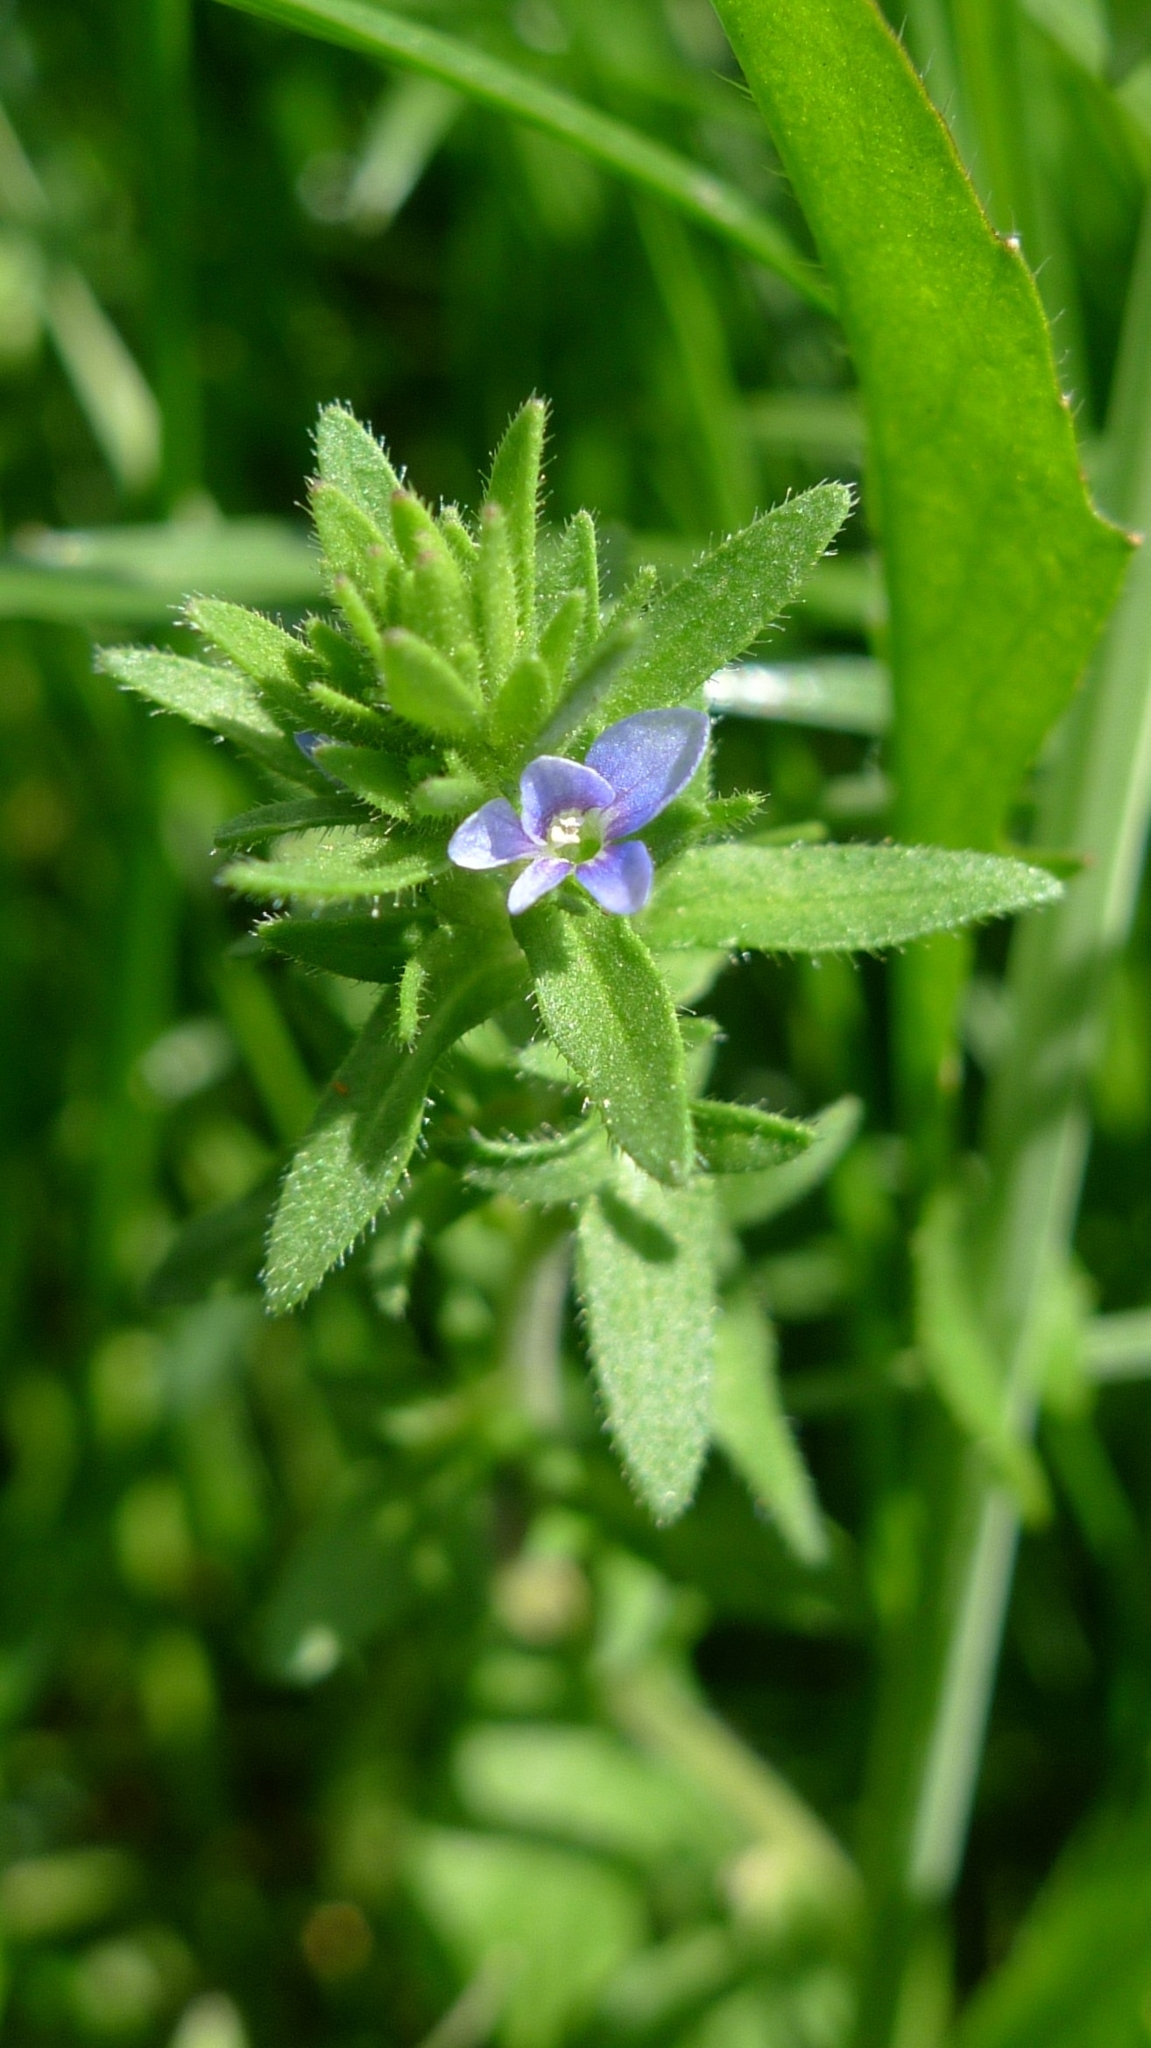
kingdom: Plantae
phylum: Tracheophyta
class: Magnoliopsida
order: Lamiales
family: Plantaginaceae
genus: Veronica
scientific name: Veronica arvensis
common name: Corn speedwell
